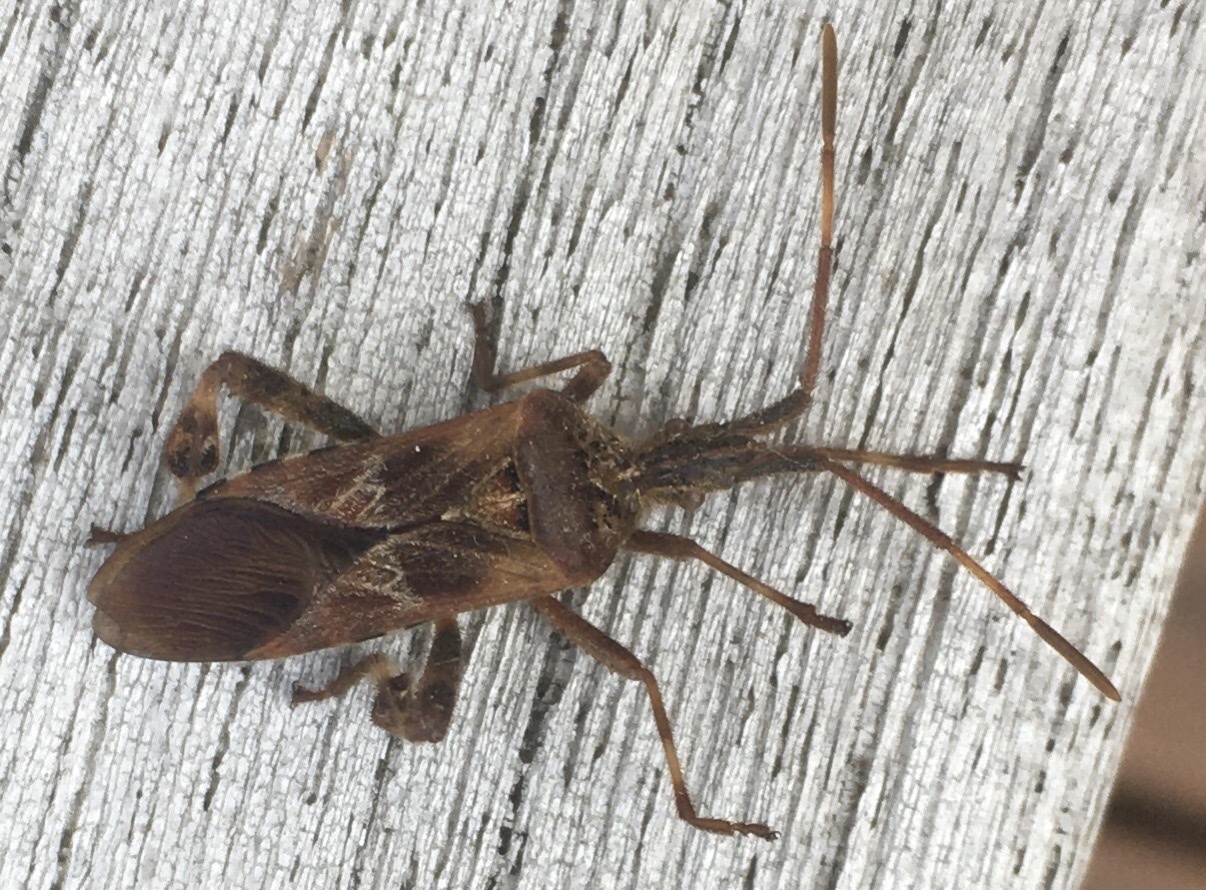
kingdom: Animalia
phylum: Arthropoda
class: Insecta
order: Hemiptera
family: Coreidae
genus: Leptoglossus
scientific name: Leptoglossus occidentalis
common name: Western conifer-seed bug
